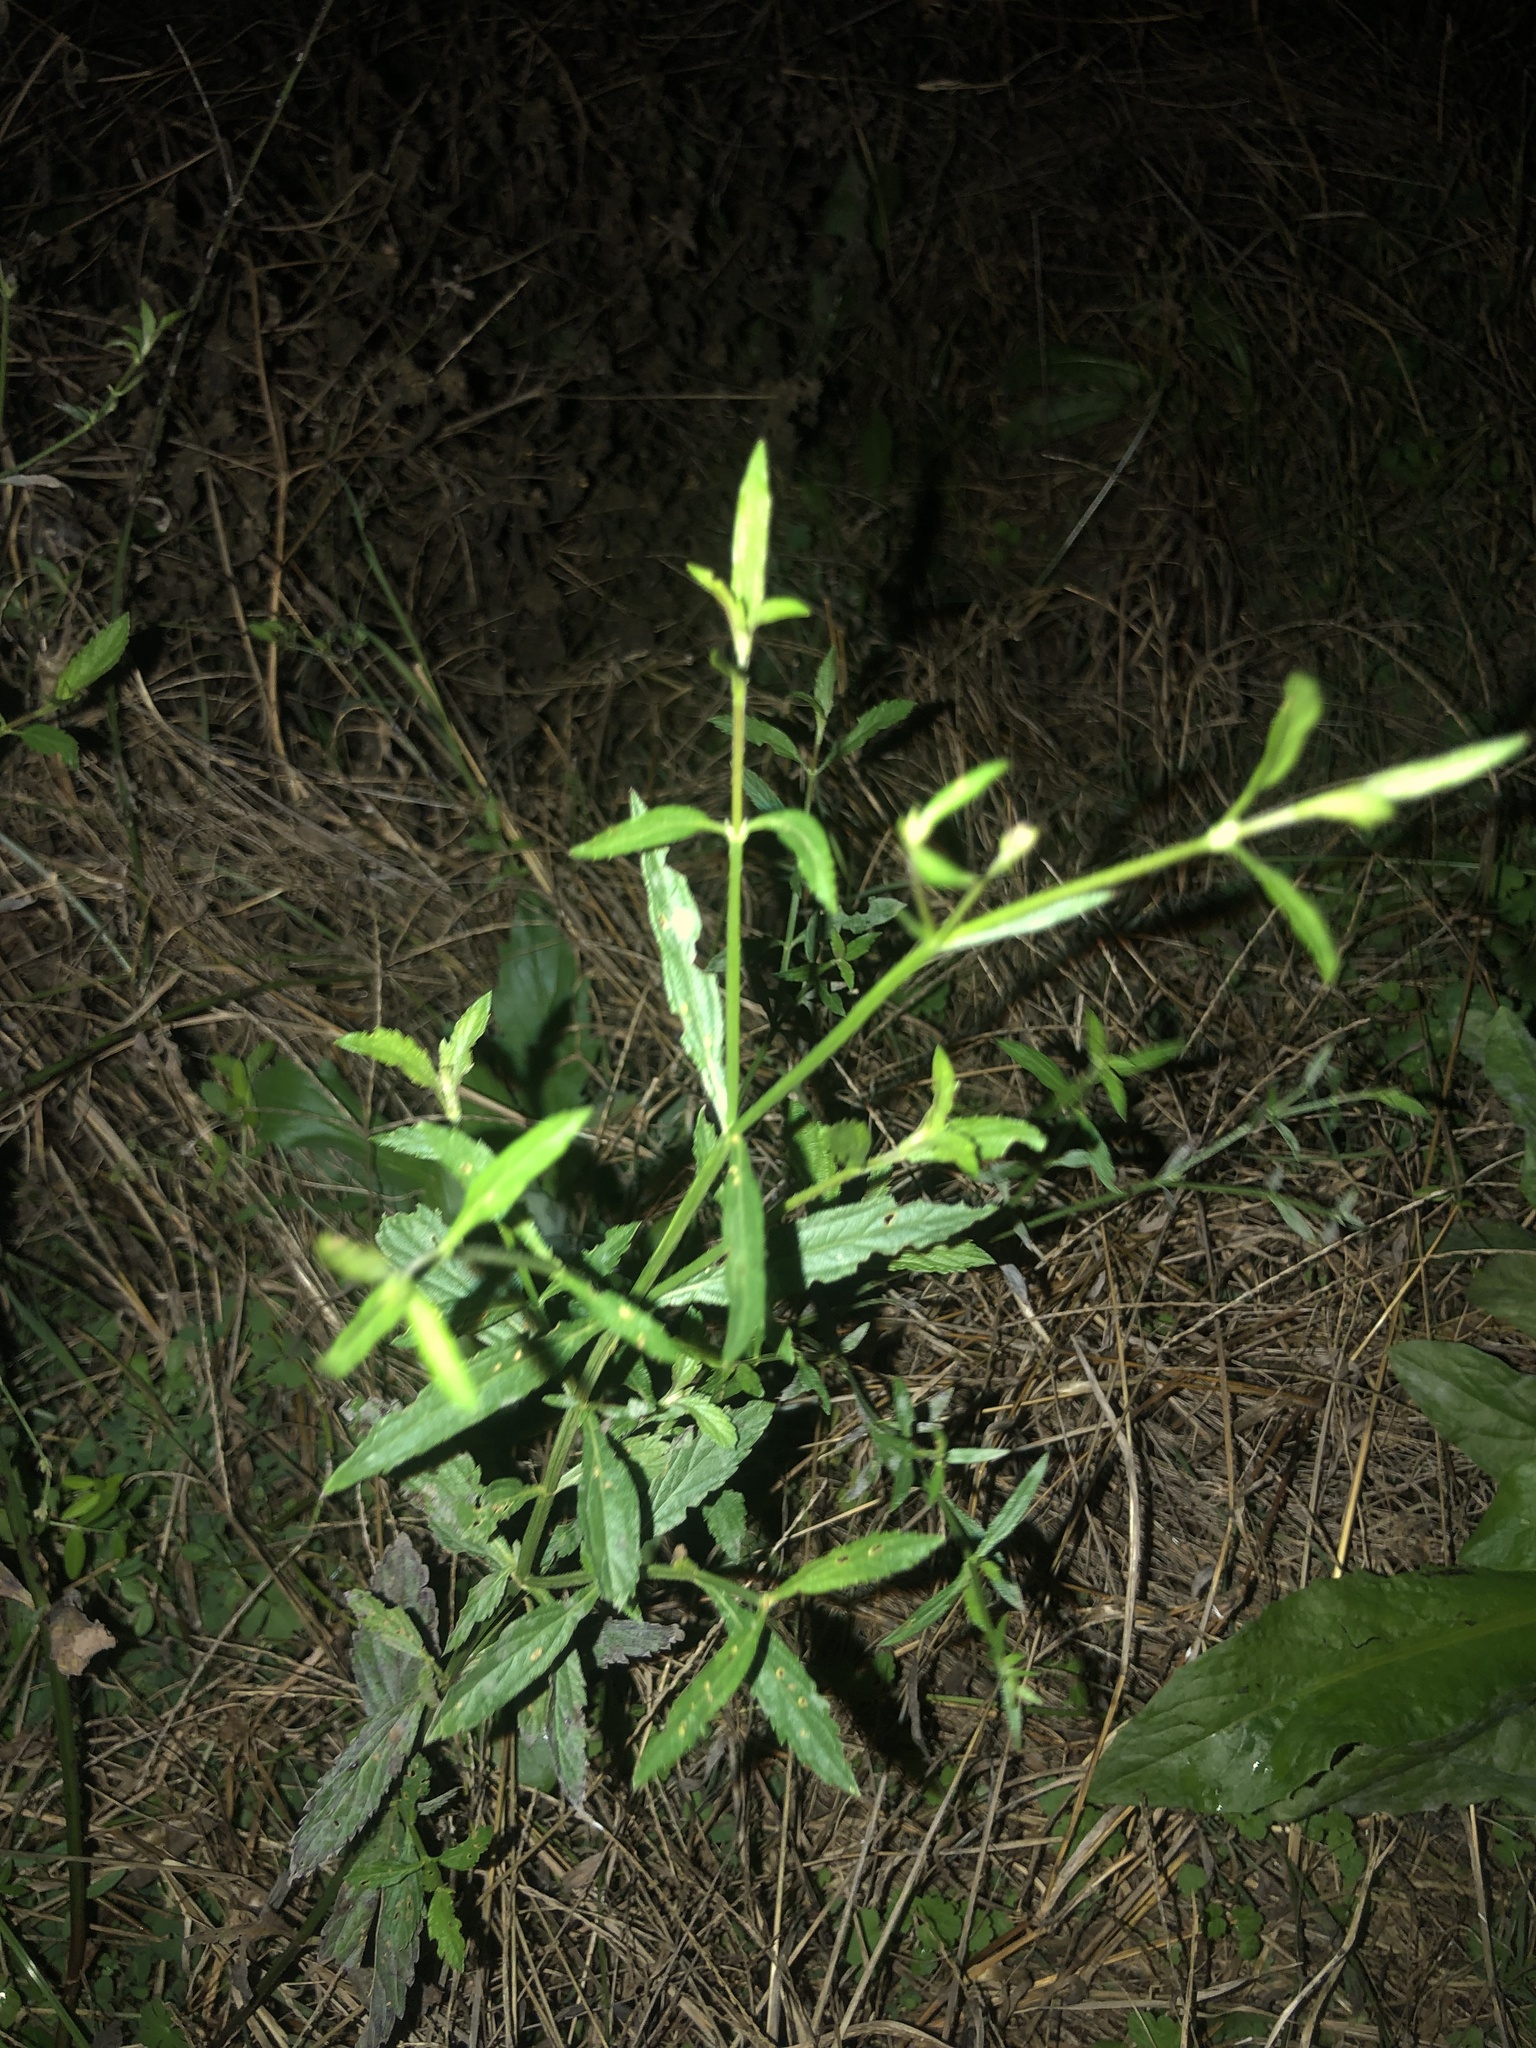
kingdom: Plantae
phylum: Tracheophyta
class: Magnoliopsida
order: Lamiales
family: Verbenaceae
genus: Verbena
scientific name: Verbena brasiliensis
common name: Brazilian vervain
